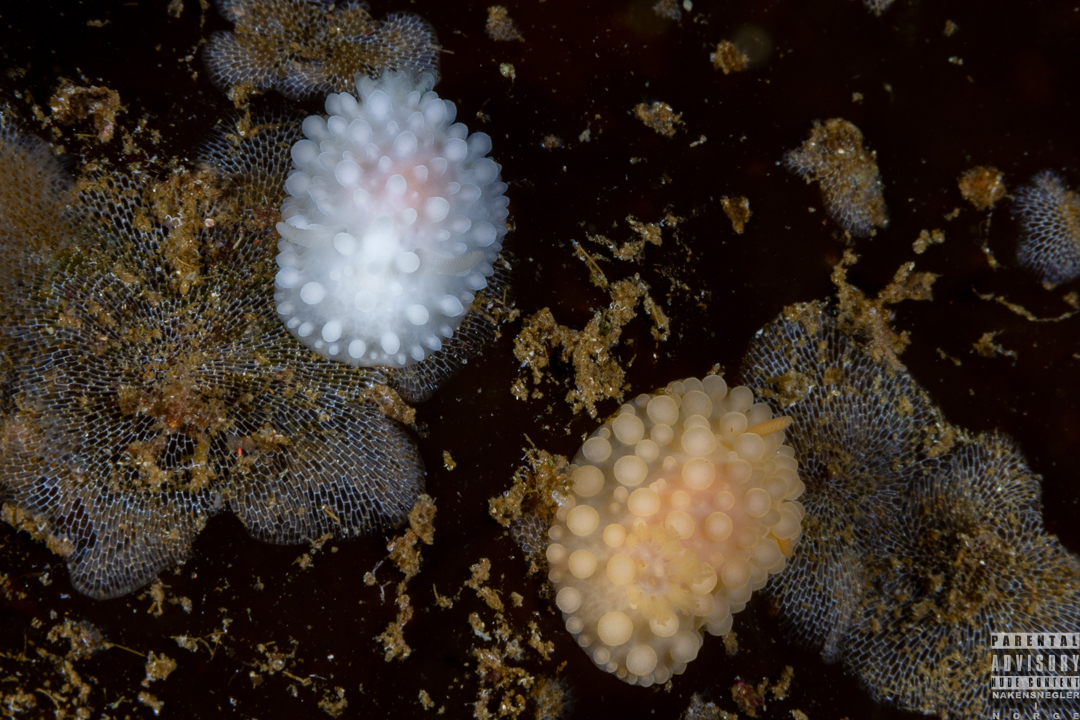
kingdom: Animalia
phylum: Mollusca
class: Gastropoda
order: Nudibranchia
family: Onchidorididae
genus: Adalaria
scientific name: Adalaria loveni
